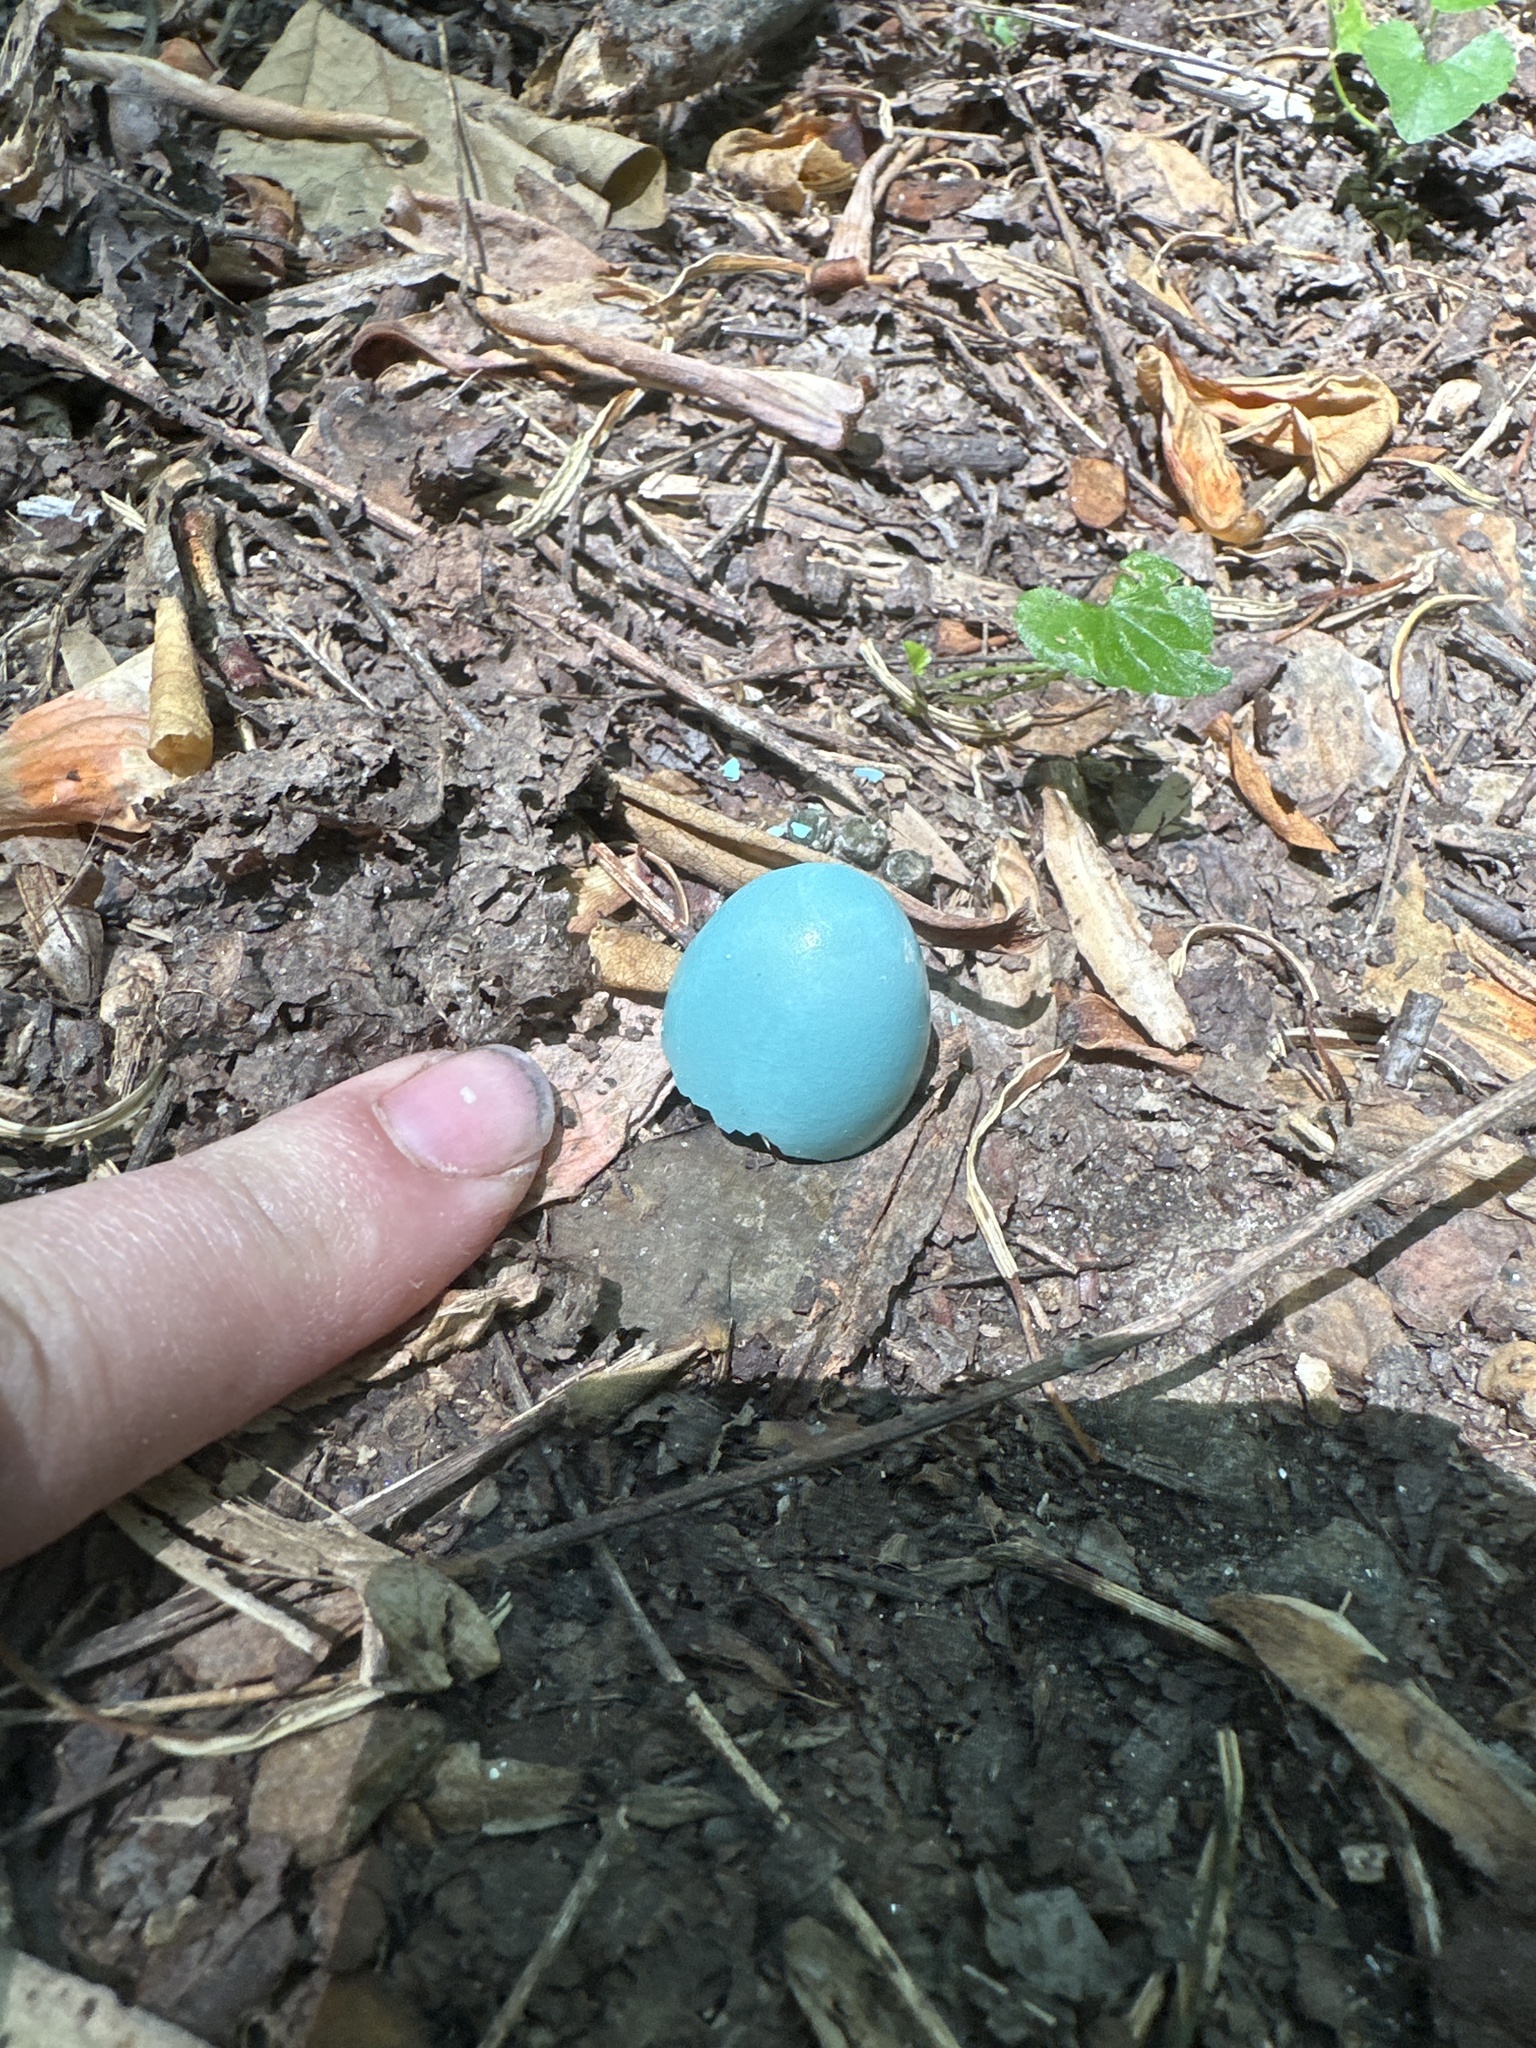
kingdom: Animalia
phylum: Chordata
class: Aves
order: Passeriformes
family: Turdidae
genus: Turdus
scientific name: Turdus migratorius
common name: American robin
